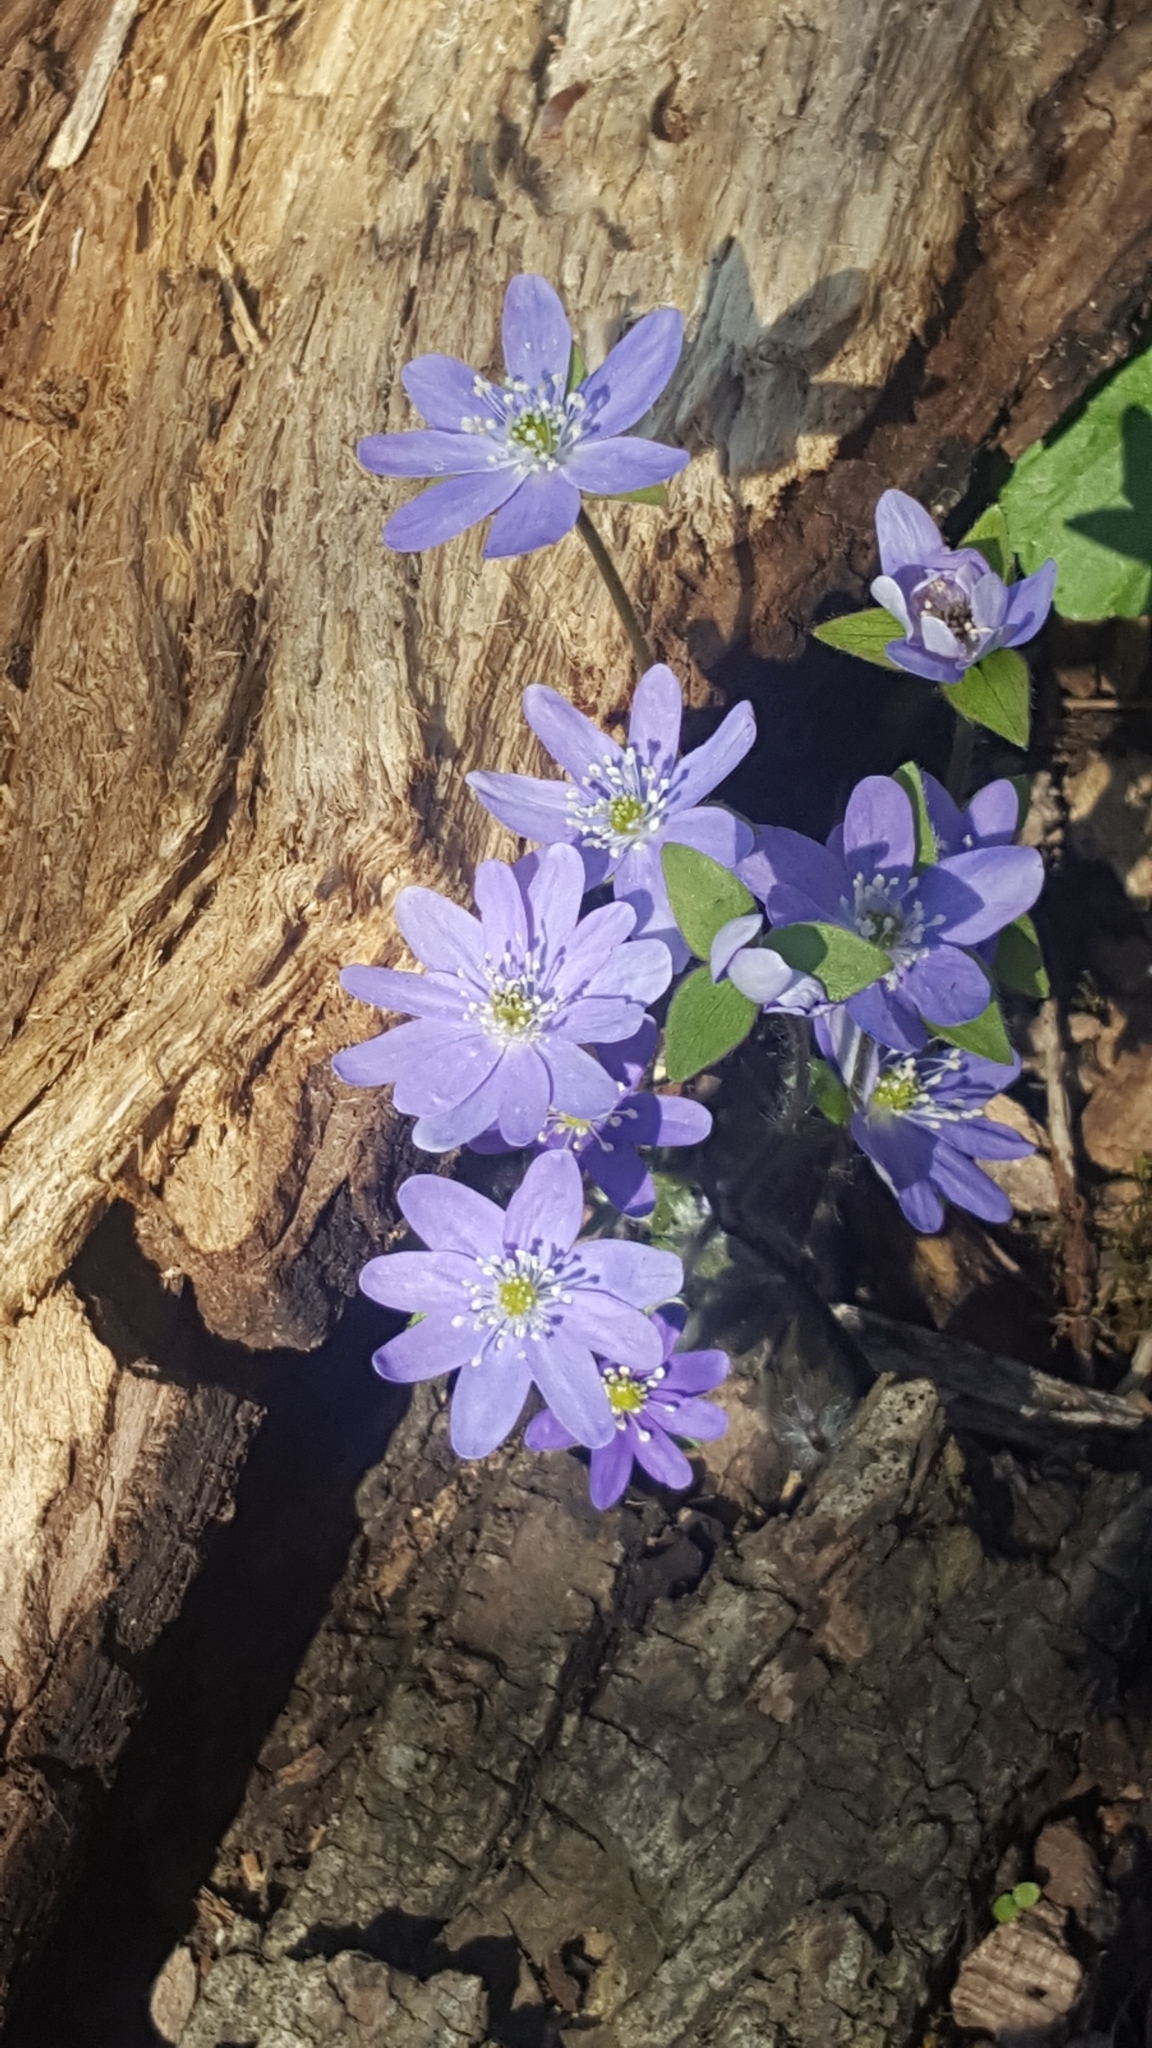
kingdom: Plantae
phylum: Tracheophyta
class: Magnoliopsida
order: Ranunculales
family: Ranunculaceae
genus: Hepatica
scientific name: Hepatica acutiloba
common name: Sharp-lobed hepatica
